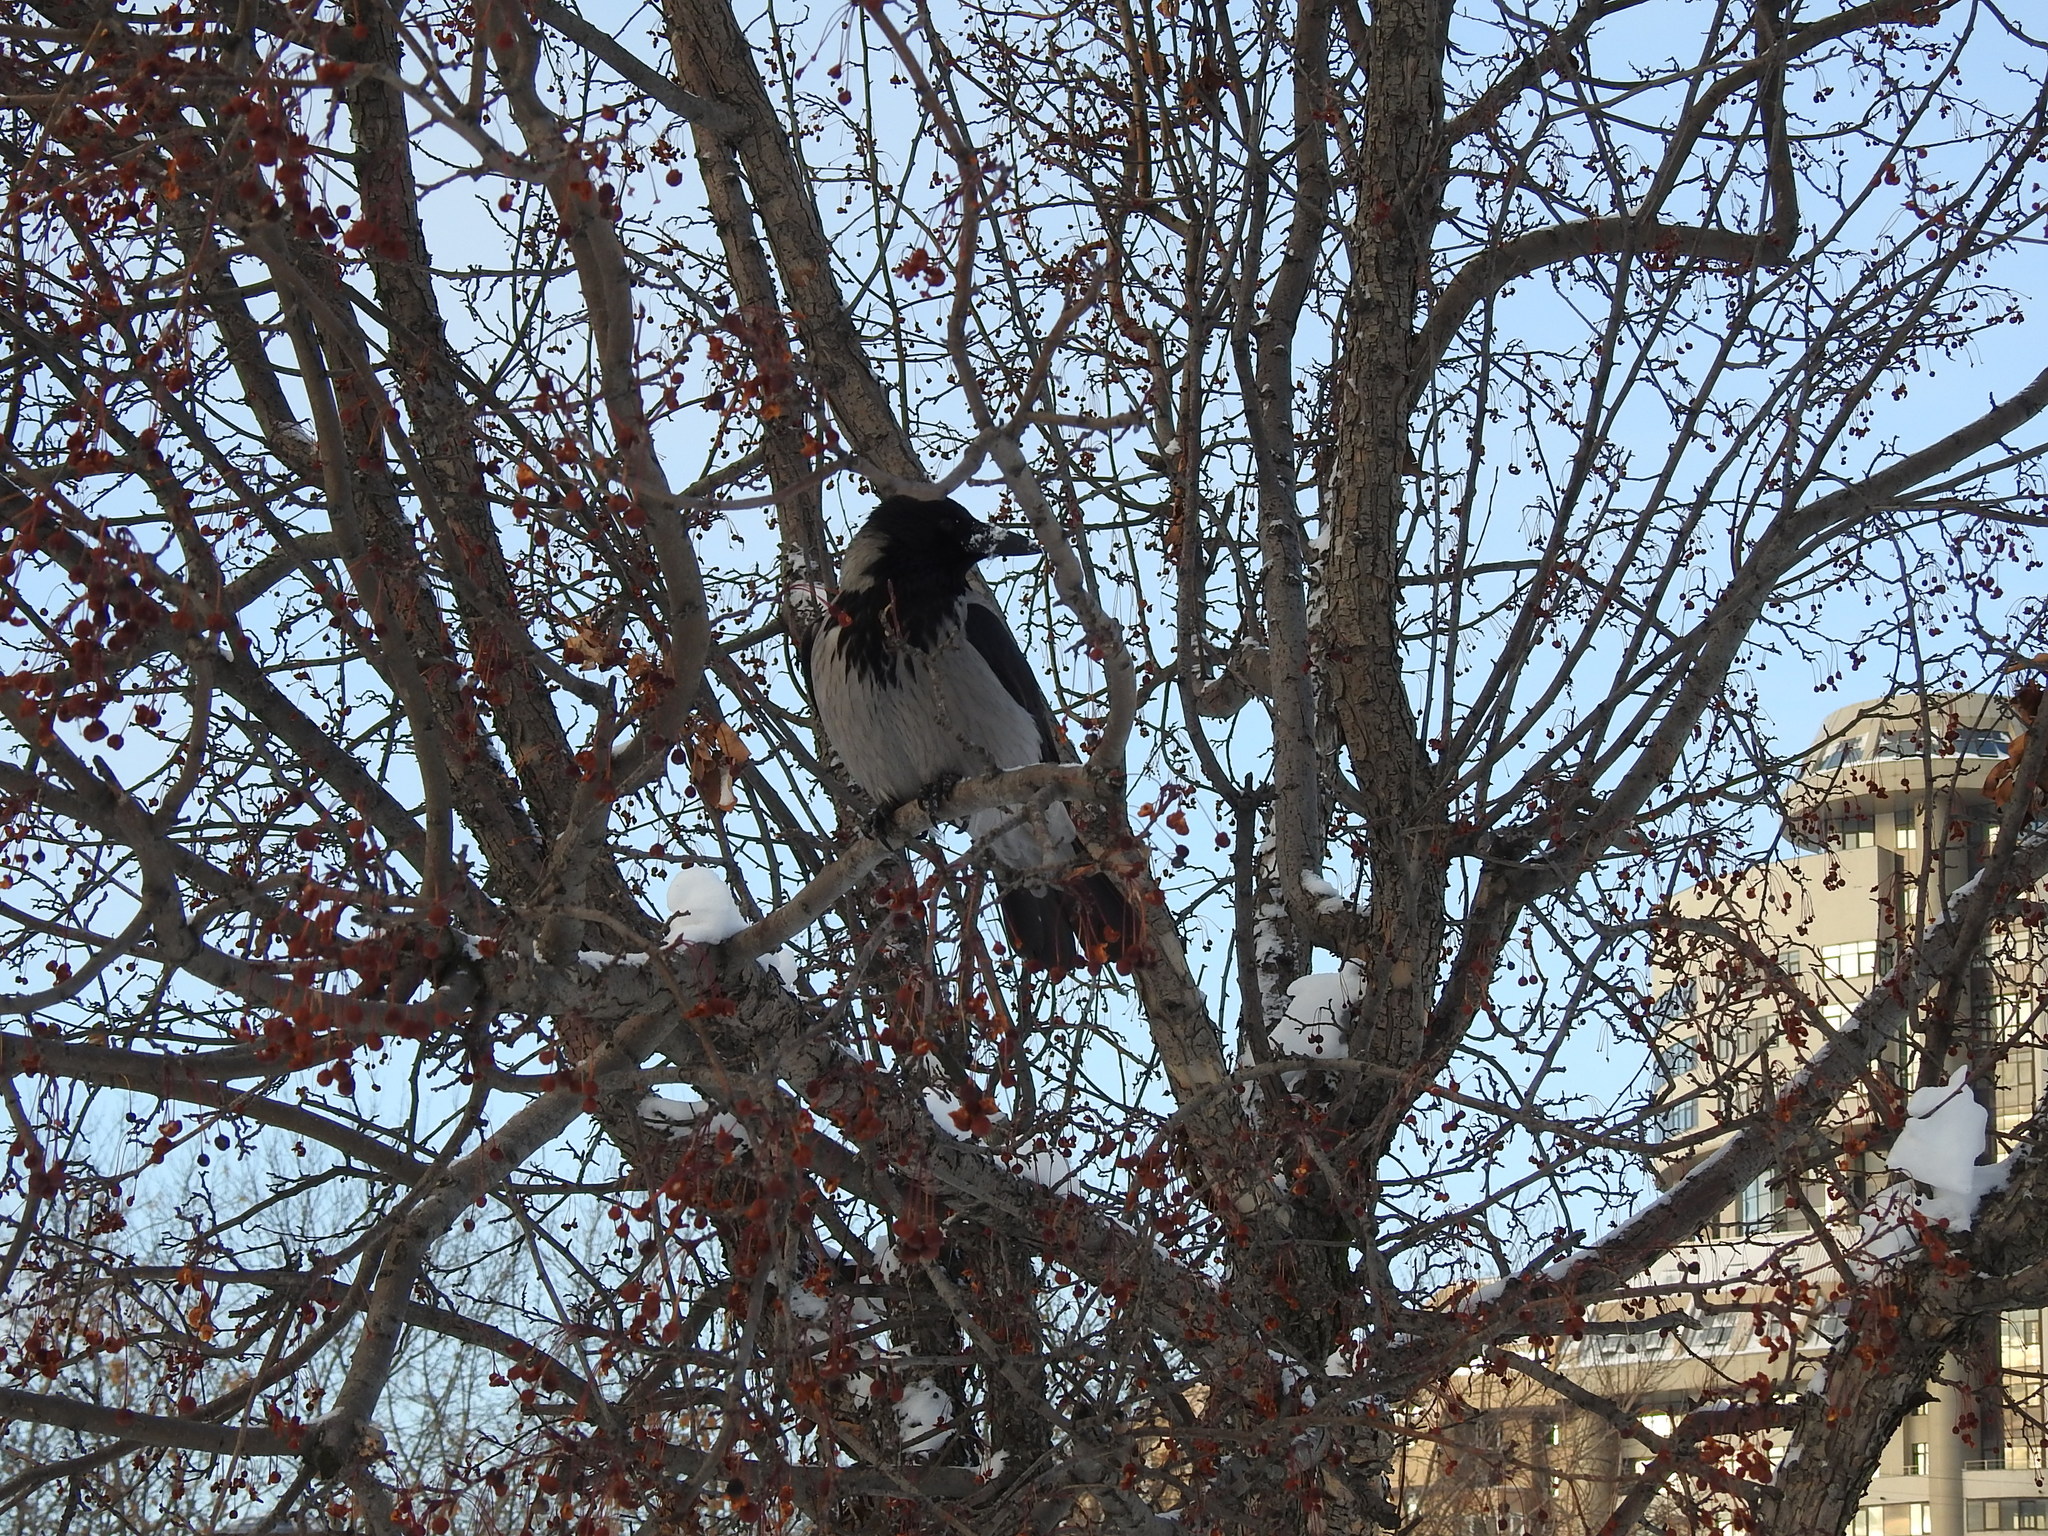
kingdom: Animalia
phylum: Chordata
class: Aves
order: Passeriformes
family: Corvidae
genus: Corvus
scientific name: Corvus cornix
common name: Hooded crow
